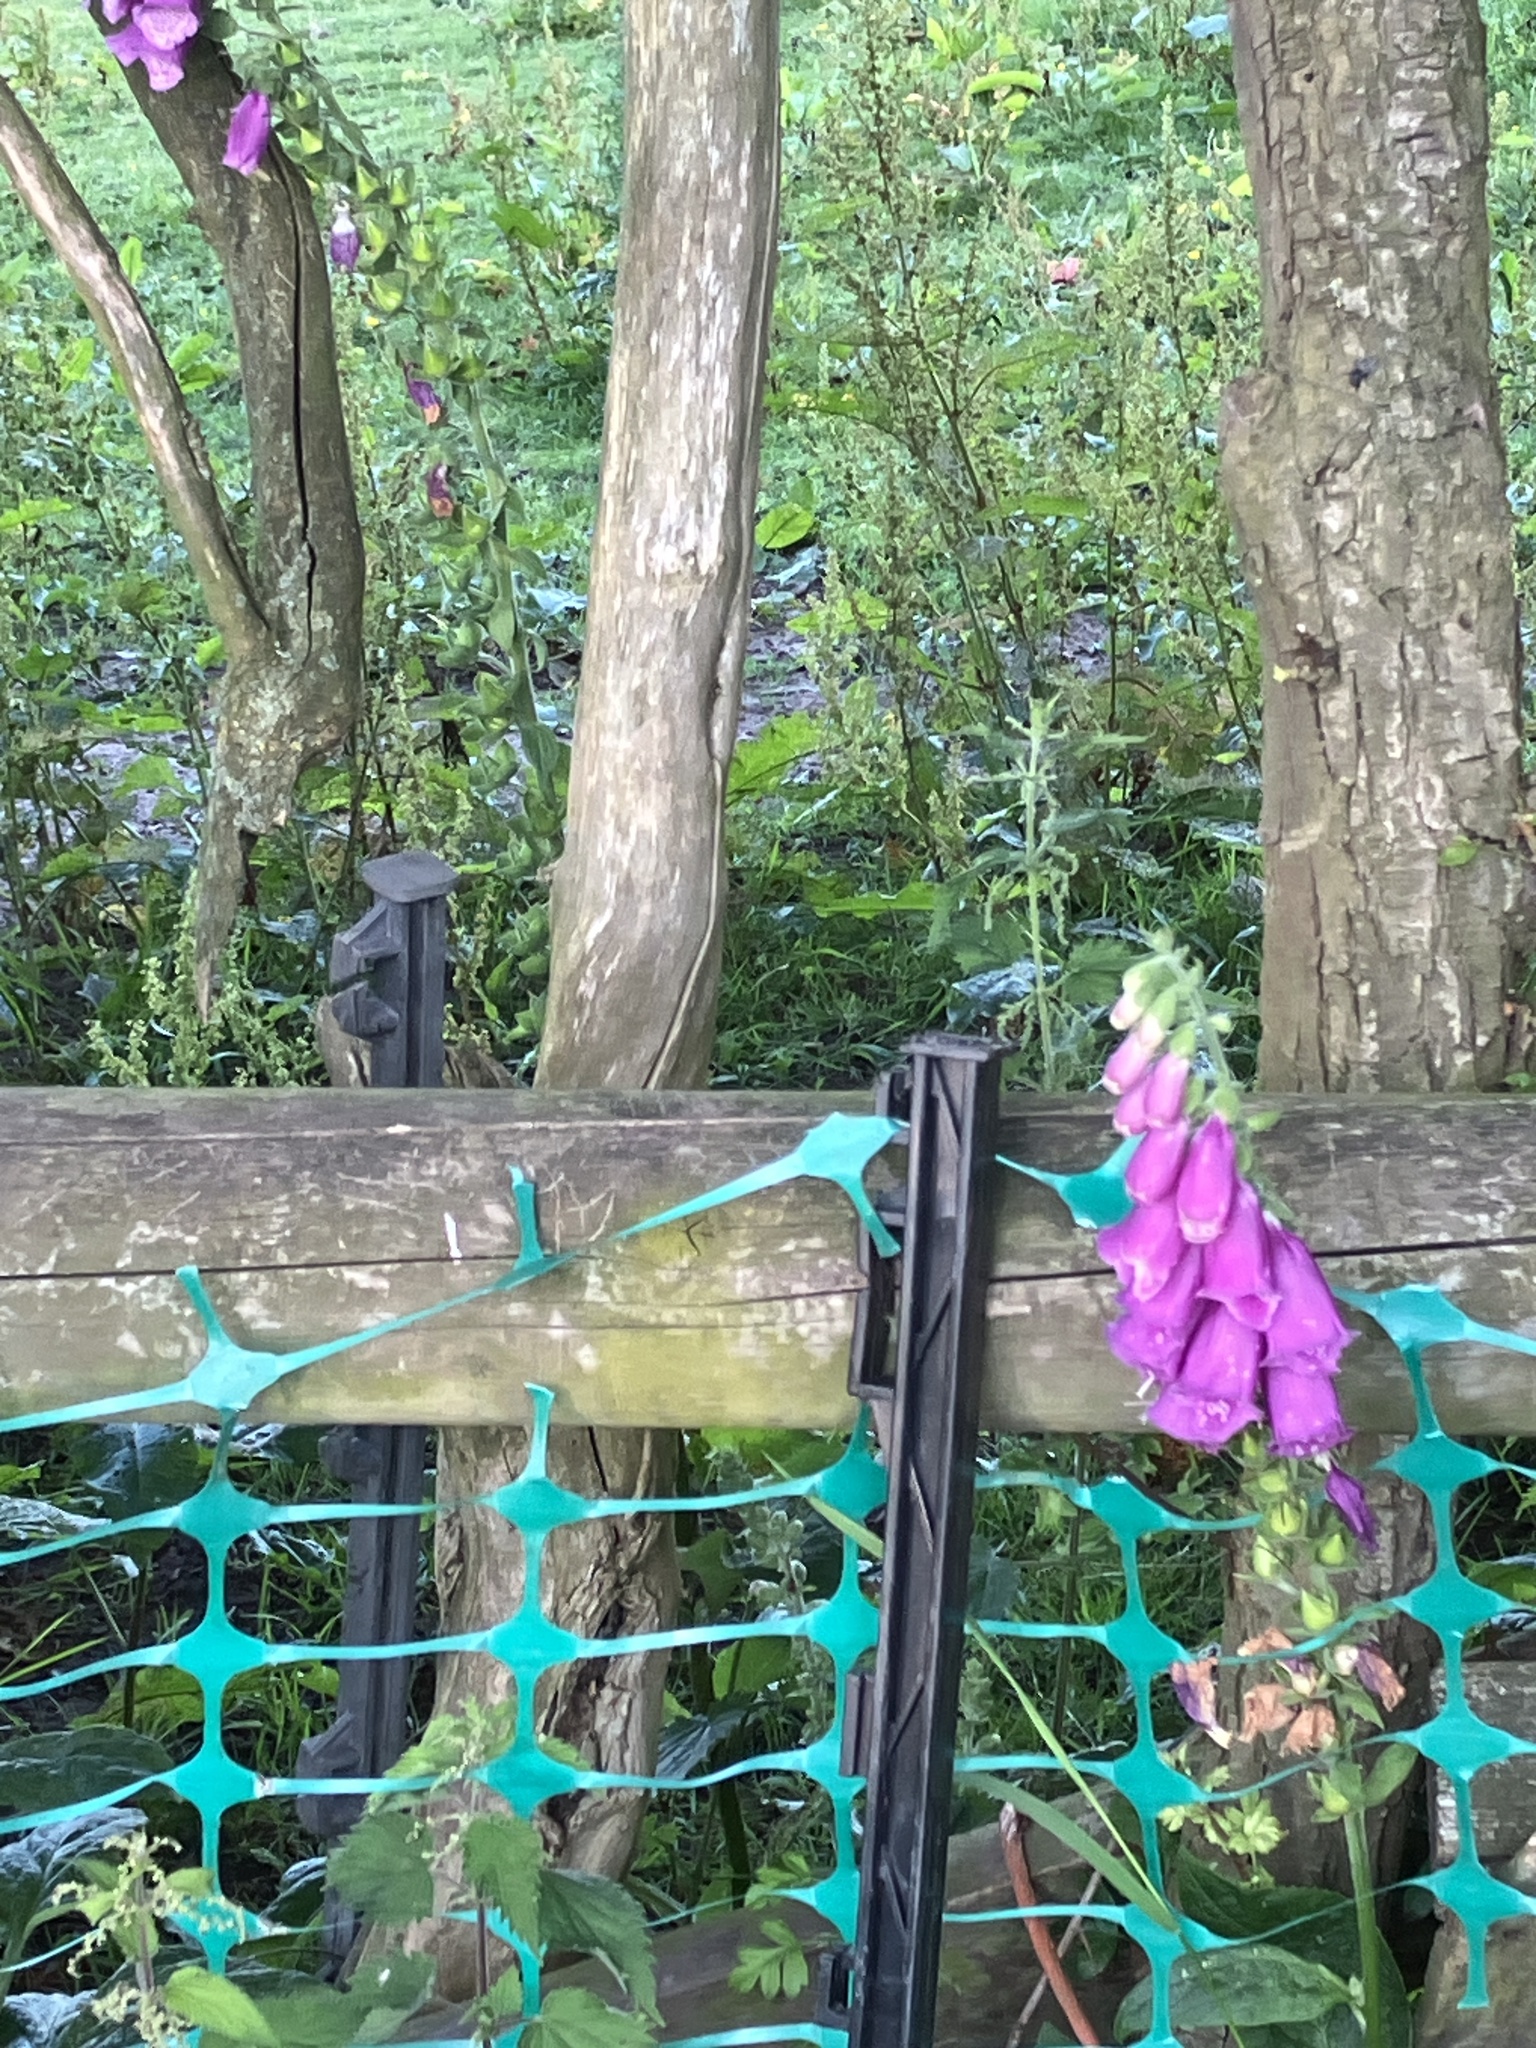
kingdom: Plantae
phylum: Tracheophyta
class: Magnoliopsida
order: Lamiales
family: Plantaginaceae
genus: Digitalis
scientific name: Digitalis purpurea
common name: Foxglove
